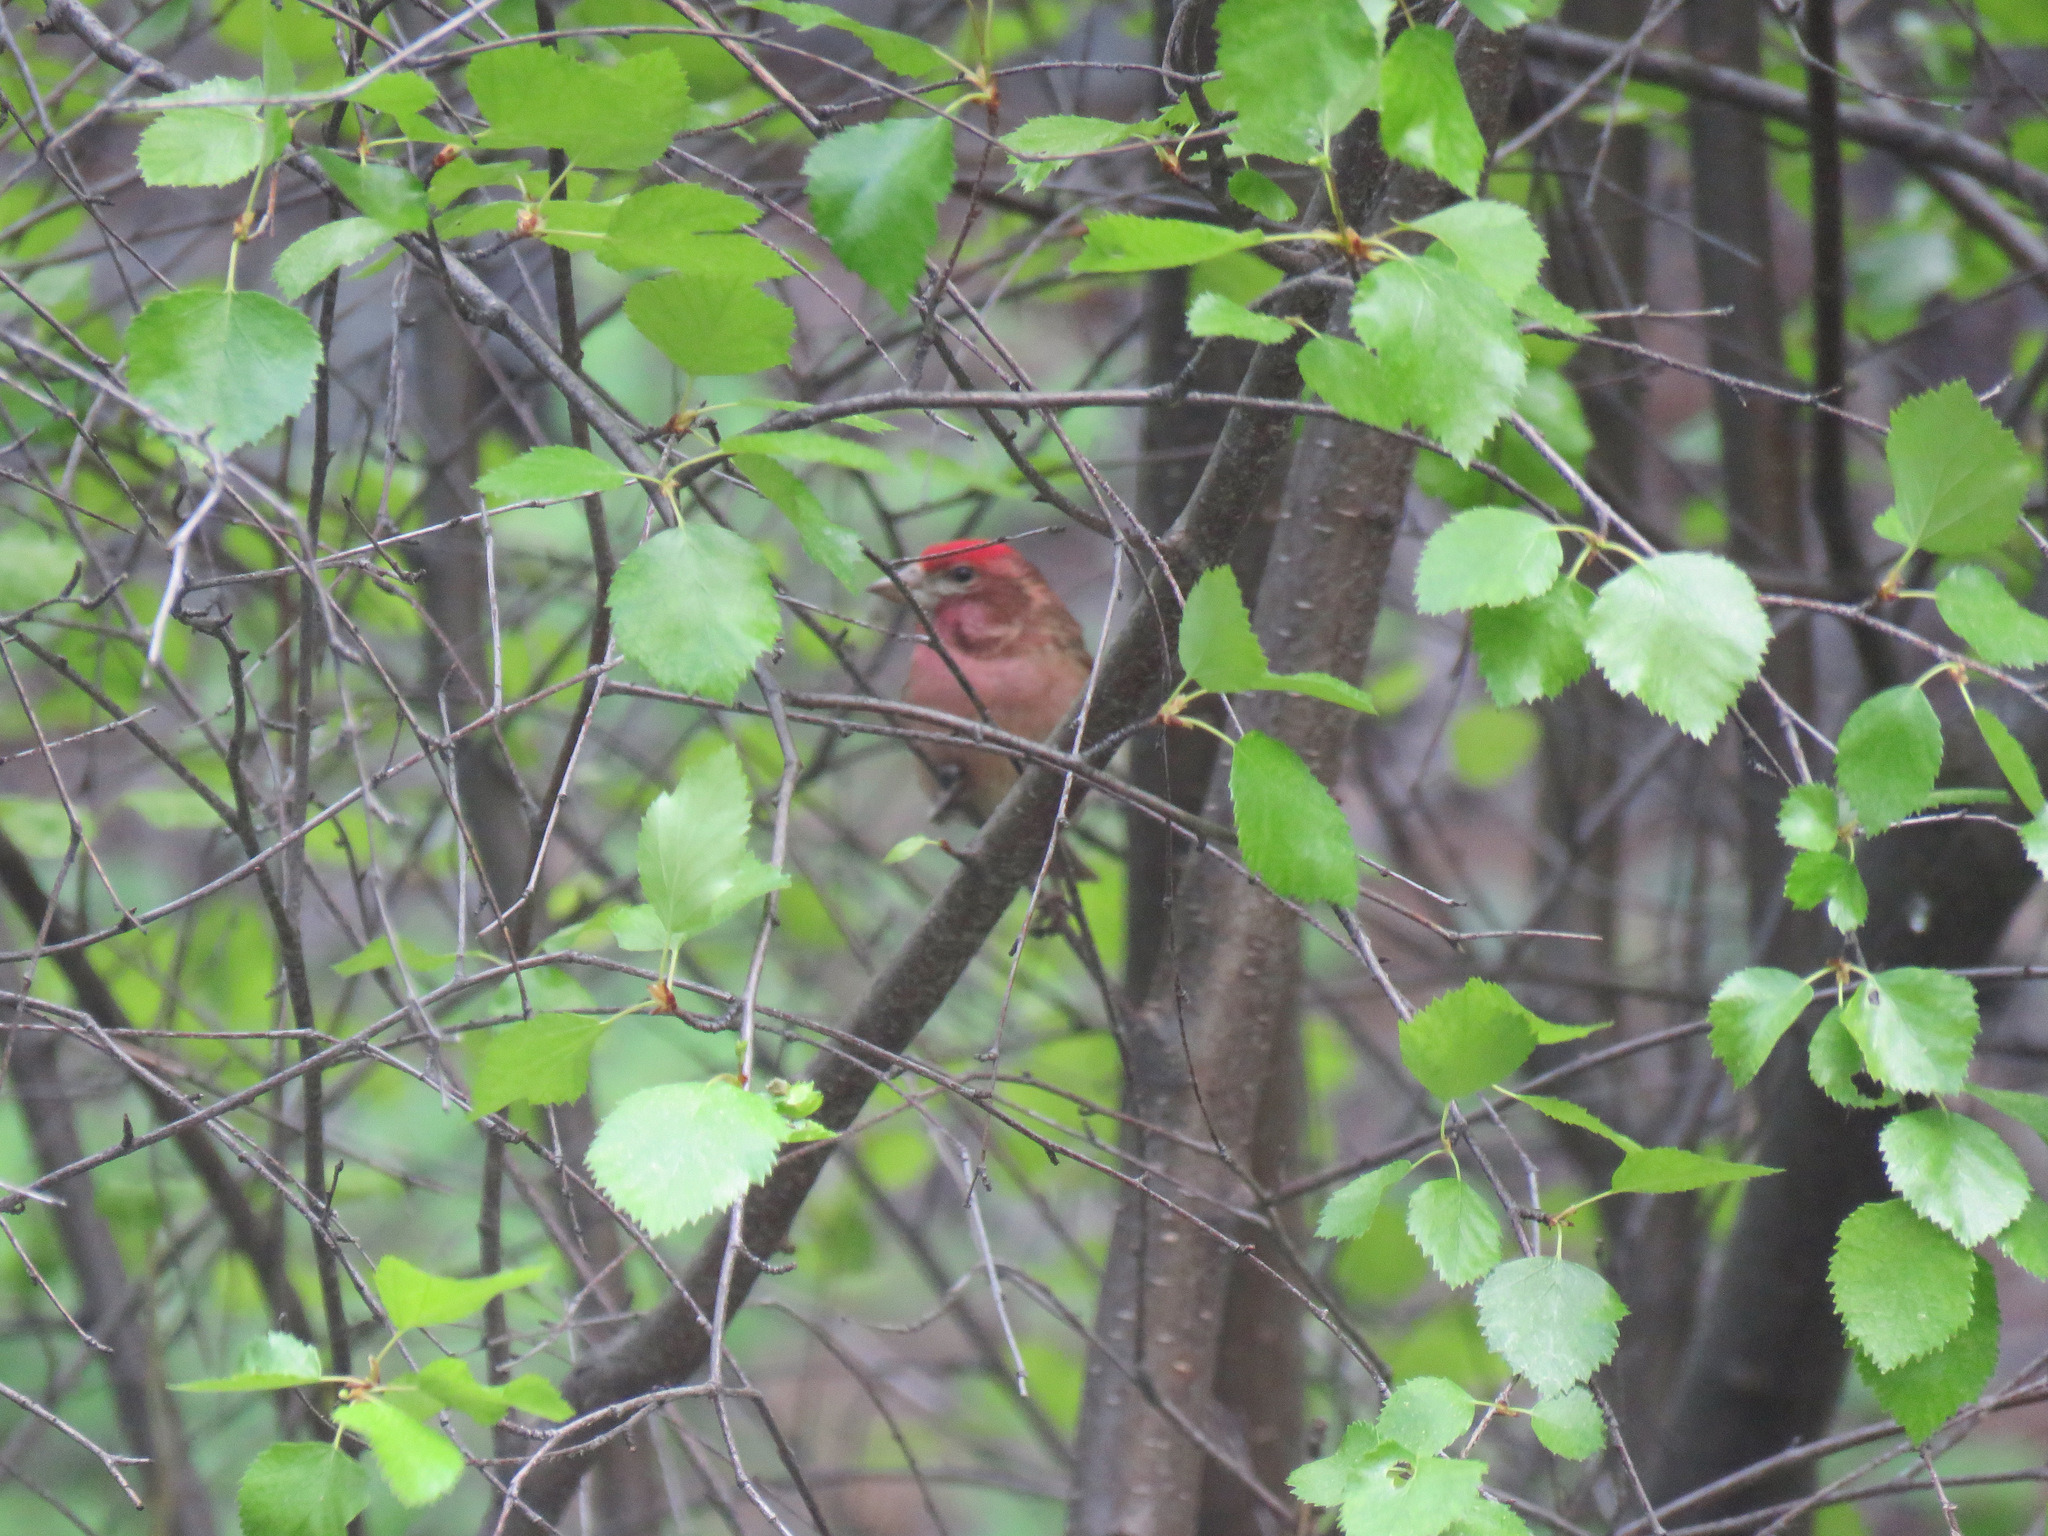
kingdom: Animalia
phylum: Chordata
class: Aves
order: Passeriformes
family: Fringillidae
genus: Haemorhous
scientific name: Haemorhous cassinii
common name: Cassin's finch
